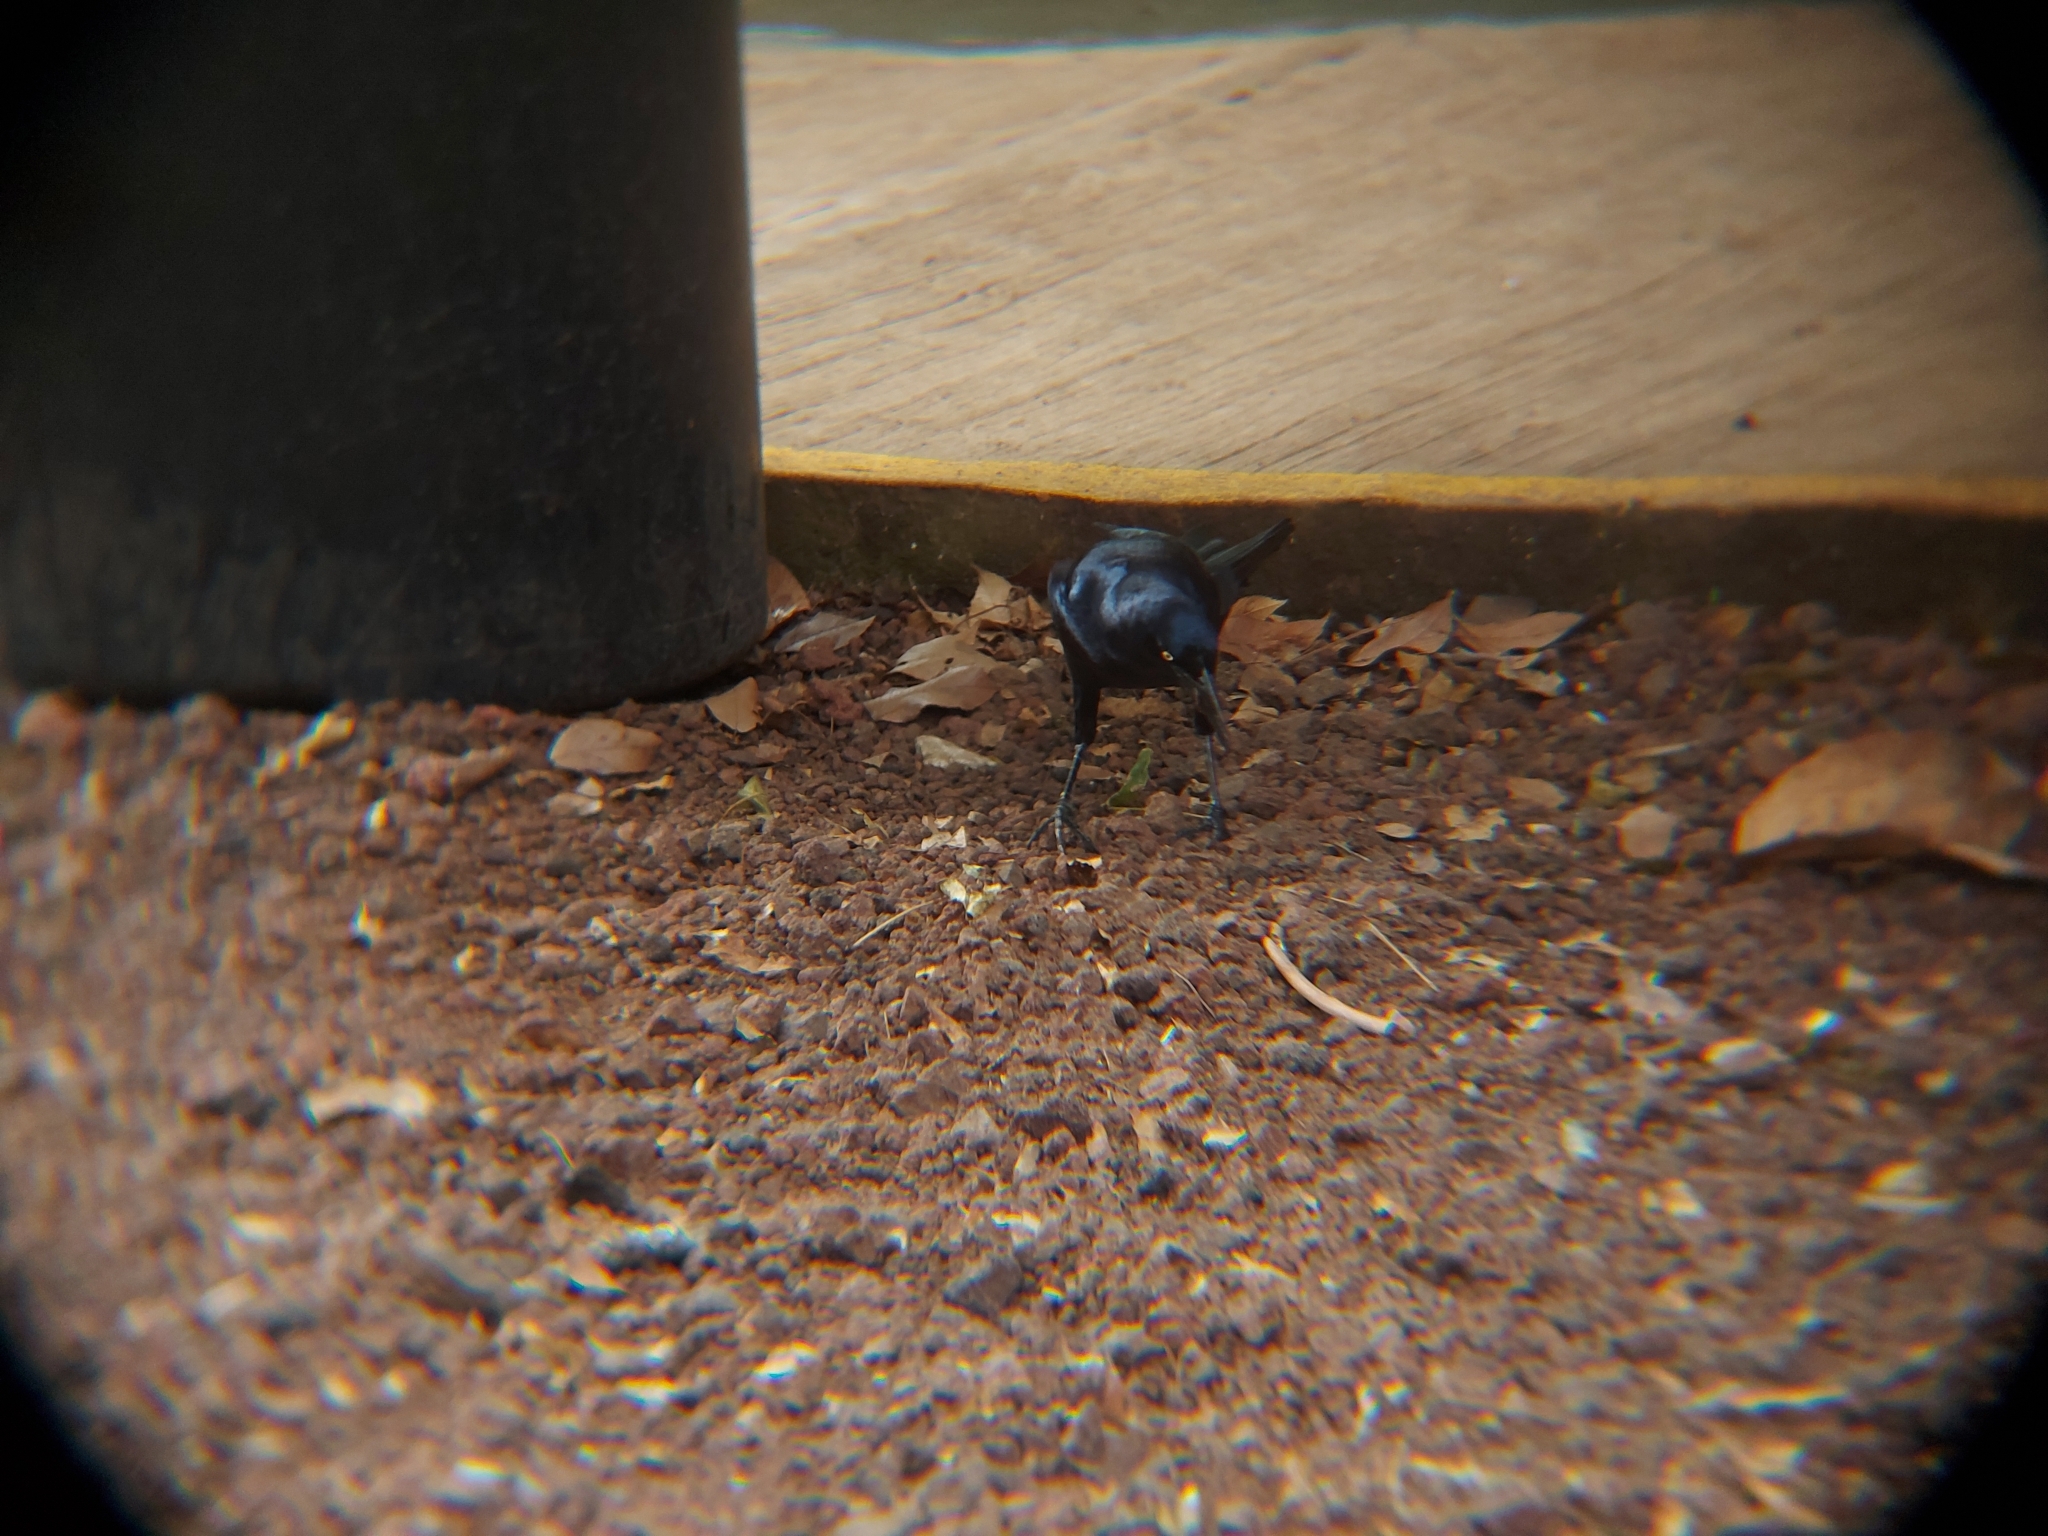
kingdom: Animalia
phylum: Chordata
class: Aves
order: Passeriformes
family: Icteridae
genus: Quiscalus
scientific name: Quiscalus mexicanus
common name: Great-tailed grackle
